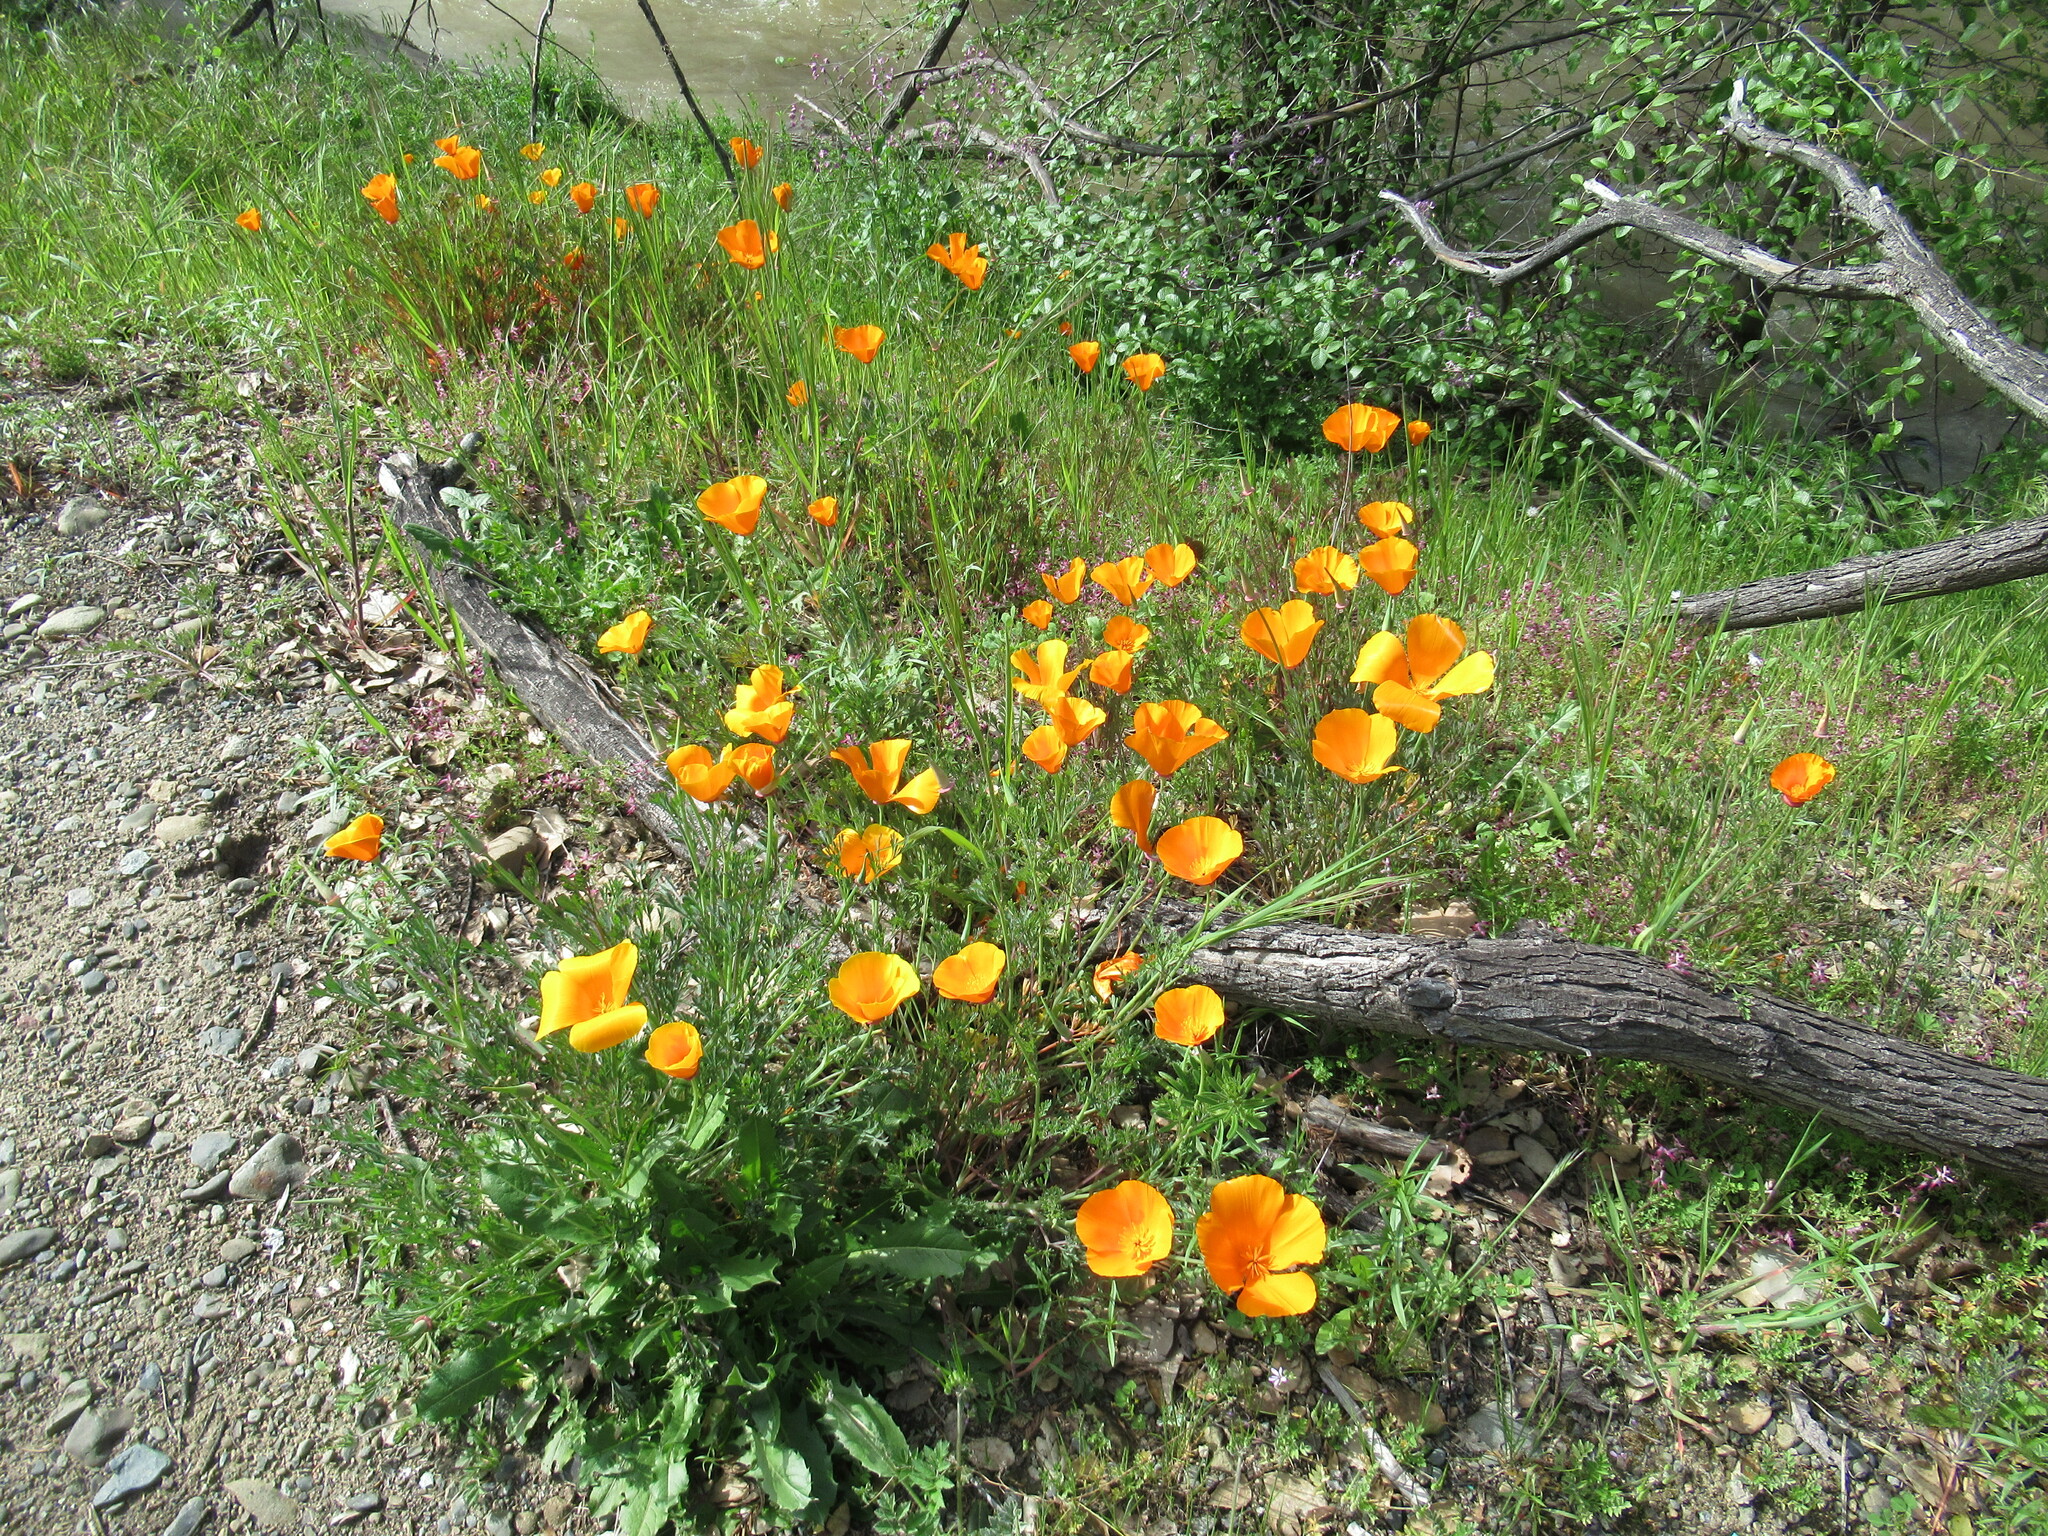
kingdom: Plantae
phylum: Tracheophyta
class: Magnoliopsida
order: Ranunculales
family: Papaveraceae
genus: Eschscholzia
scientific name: Eschscholzia californica
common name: California poppy
